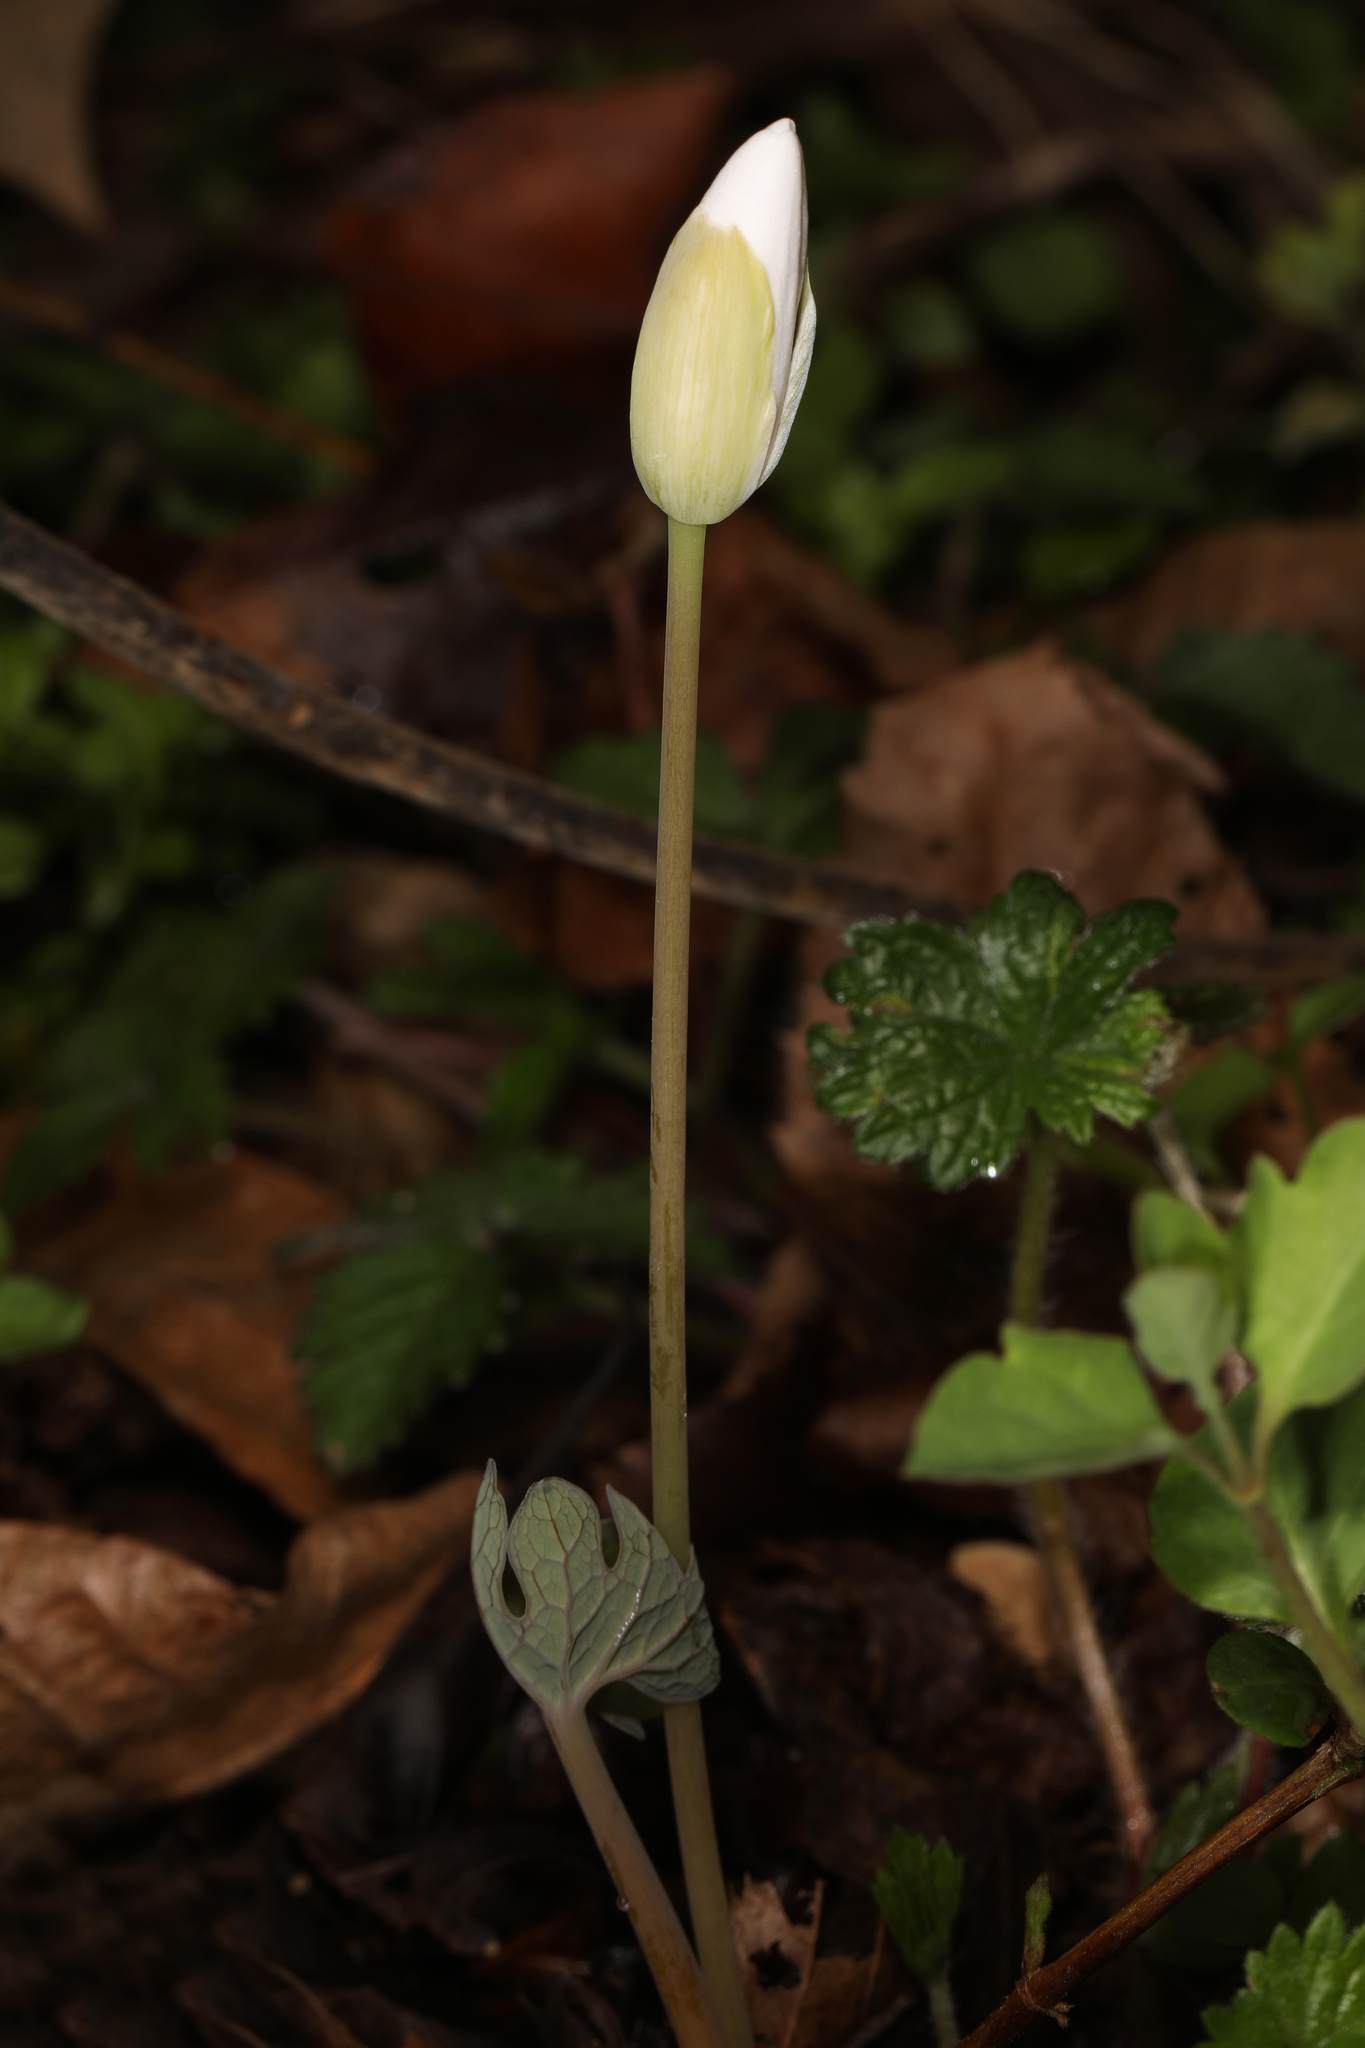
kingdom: Plantae
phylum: Tracheophyta
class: Magnoliopsida
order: Ranunculales
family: Papaveraceae
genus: Sanguinaria
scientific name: Sanguinaria canadensis
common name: Bloodroot
